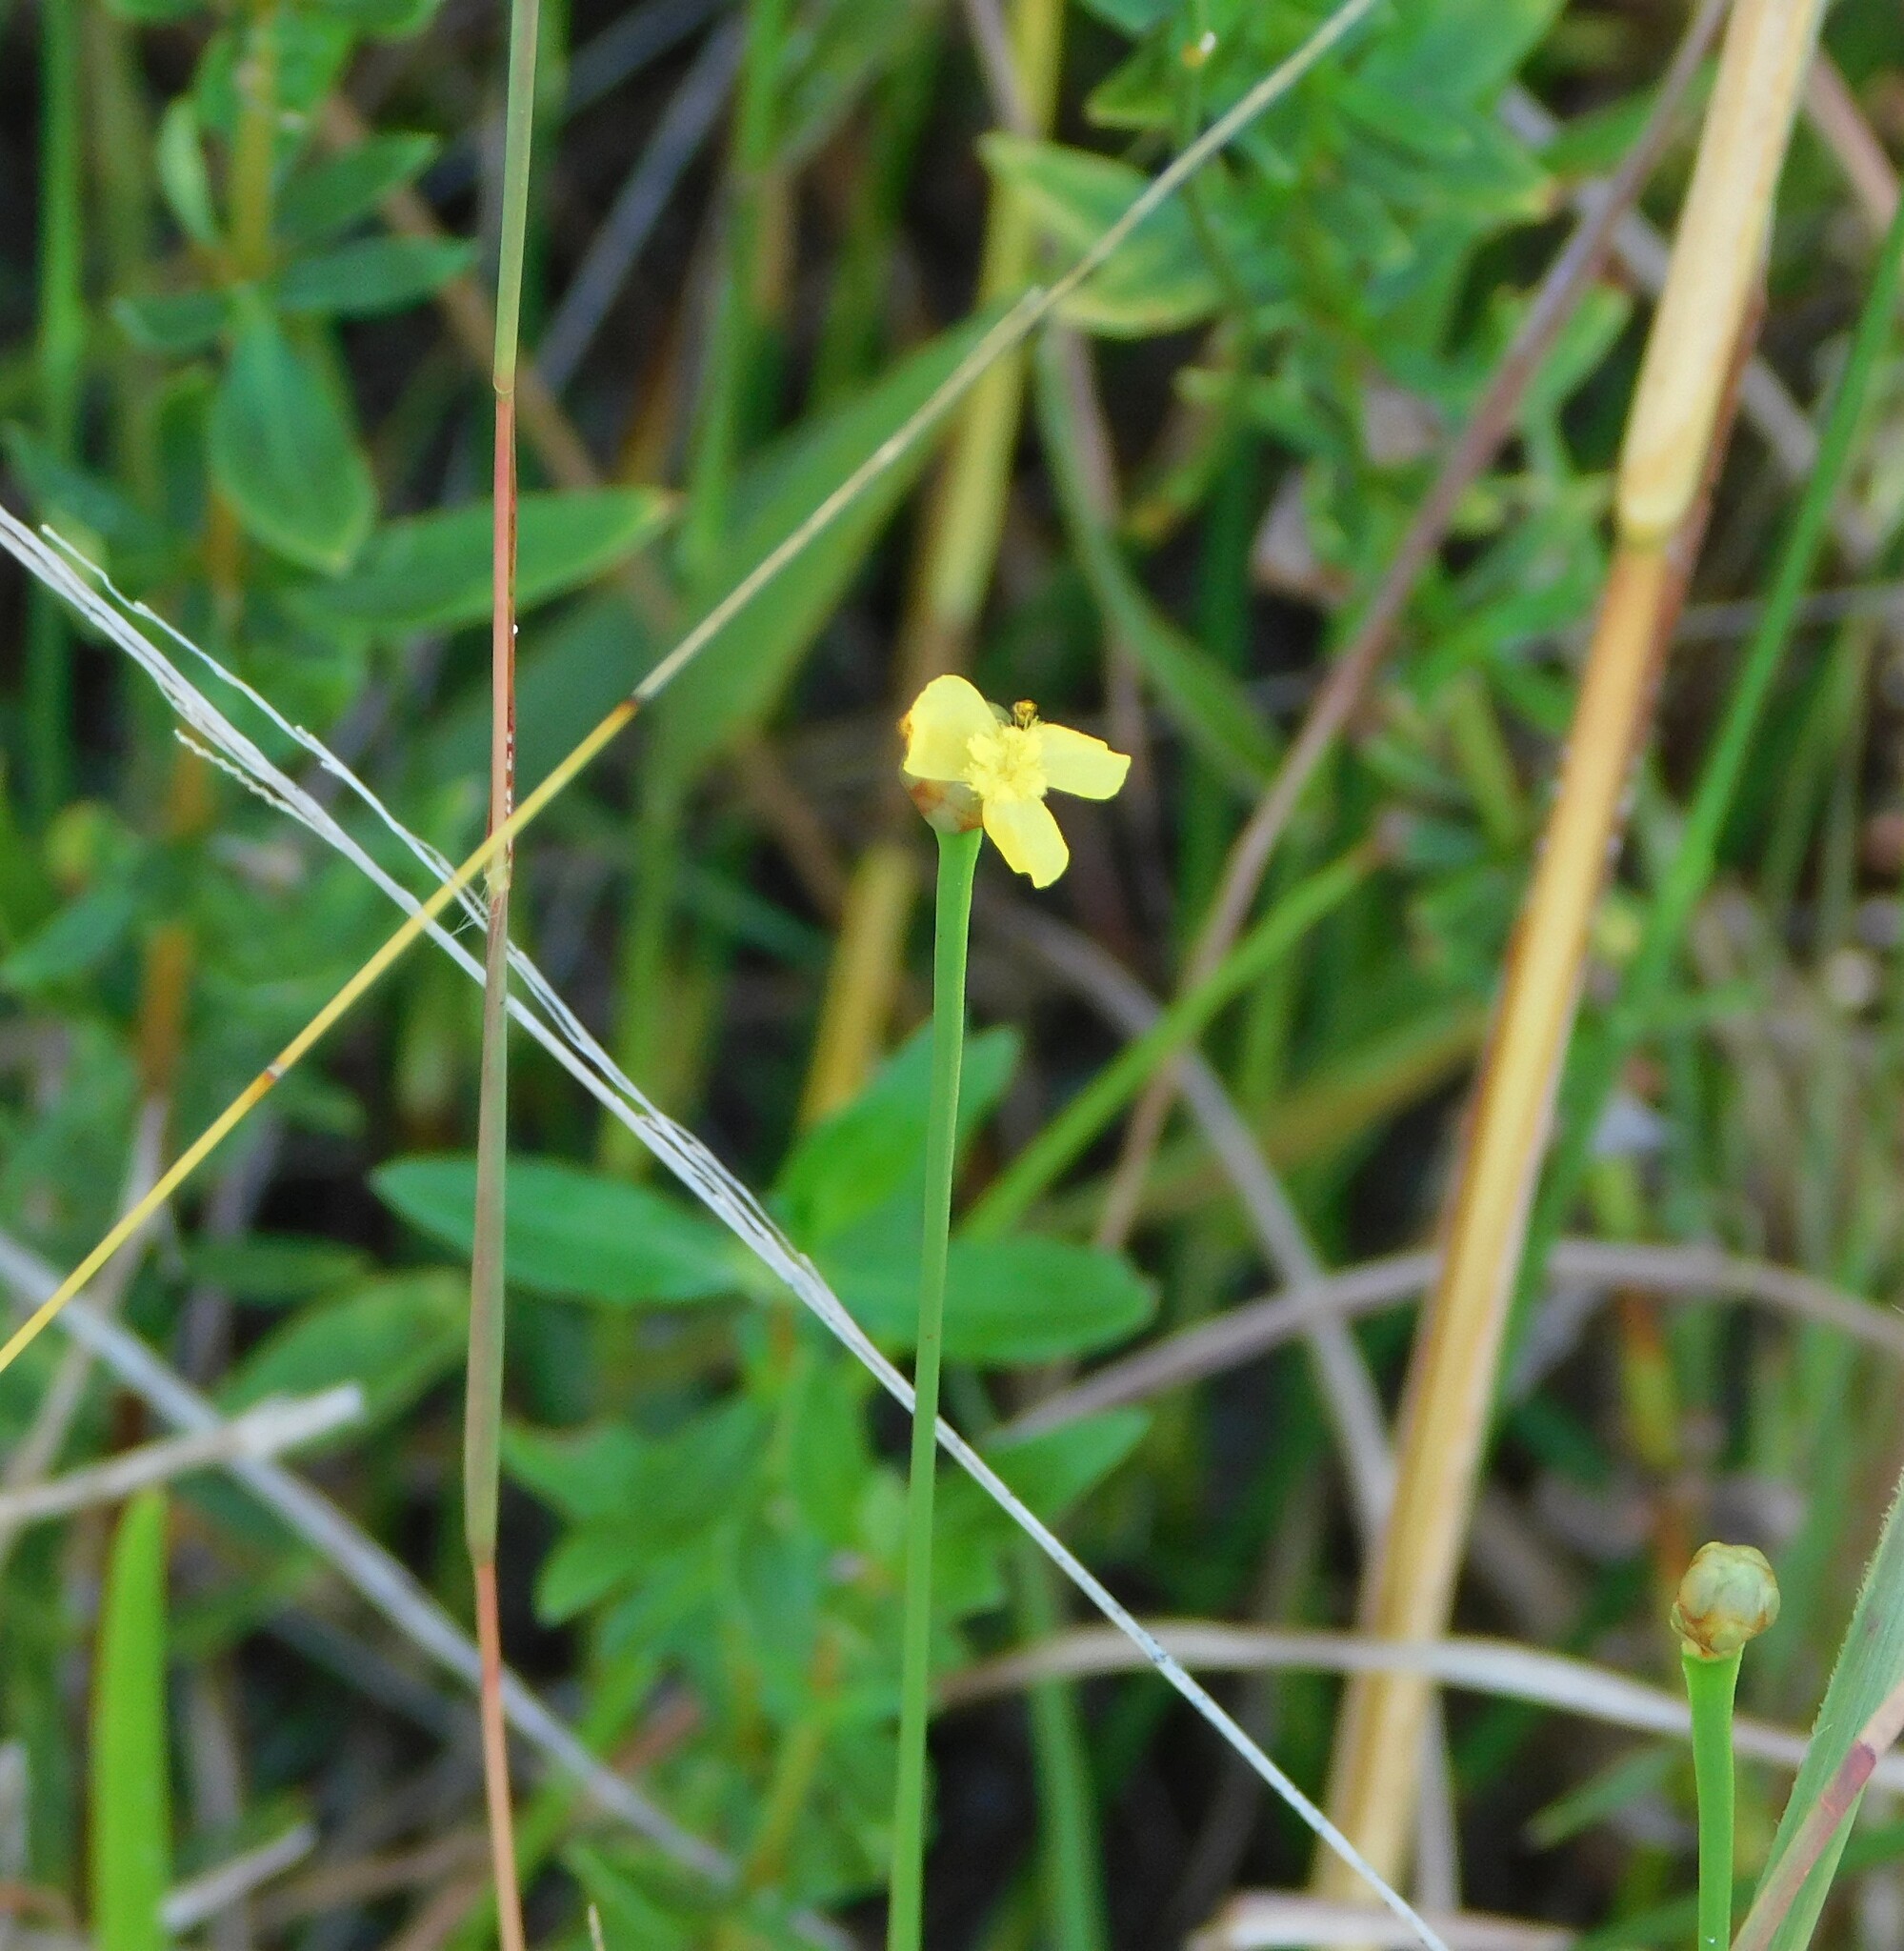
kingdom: Plantae
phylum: Tracheophyta
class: Liliopsida
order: Poales
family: Xyridaceae
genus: Xyris
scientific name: Xyris jupicai
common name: Richard's yelloweyed grass
